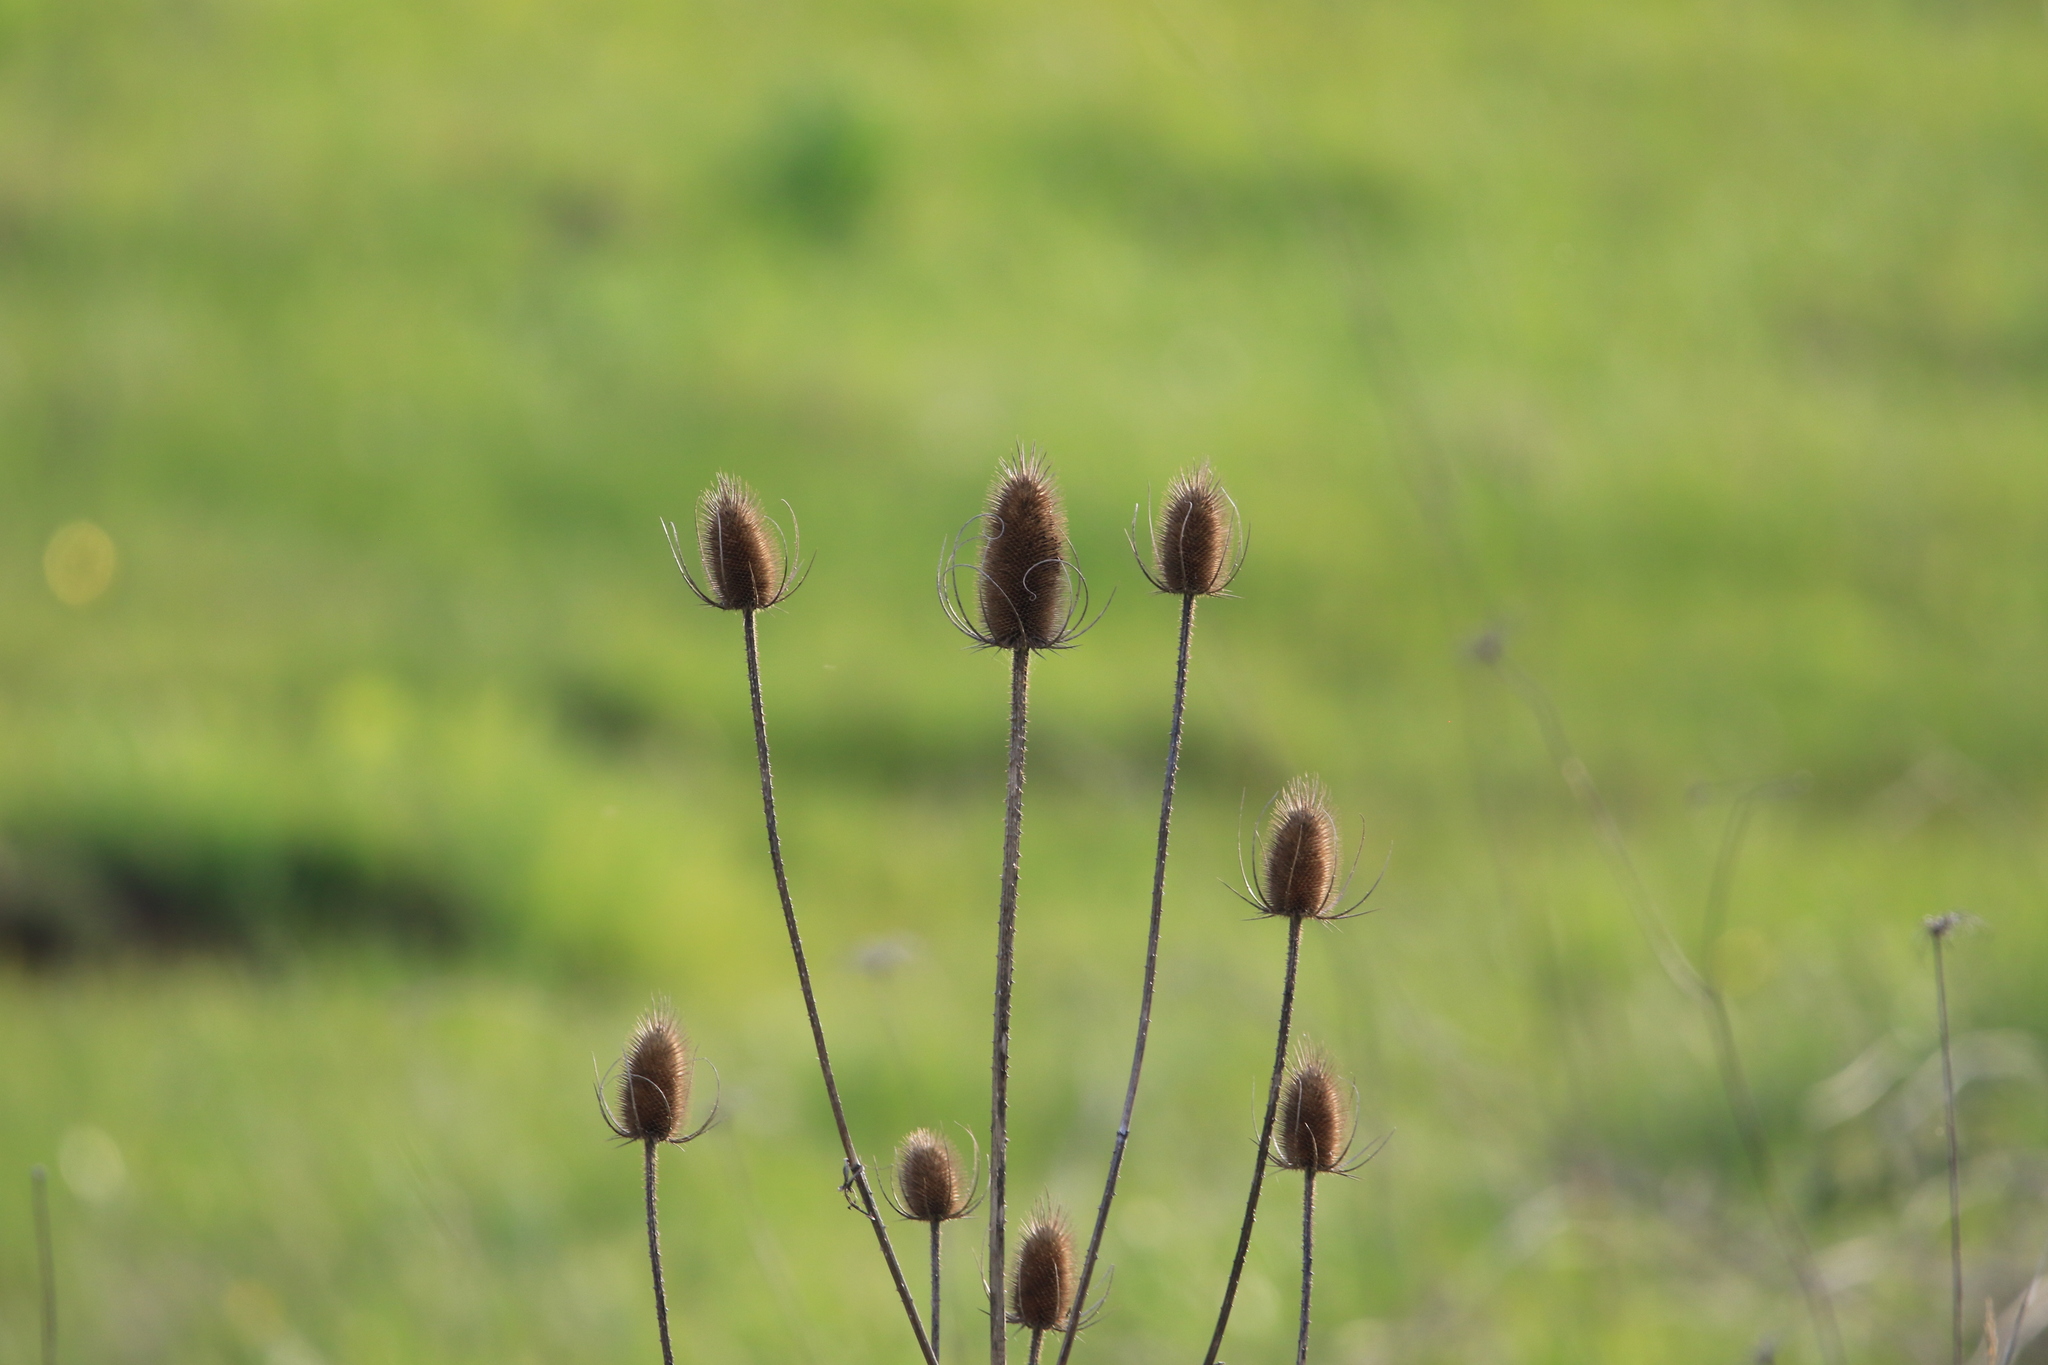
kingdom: Plantae
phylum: Tracheophyta
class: Magnoliopsida
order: Dipsacales
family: Caprifoliaceae
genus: Dipsacus
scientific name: Dipsacus fullonum
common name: Teasel
